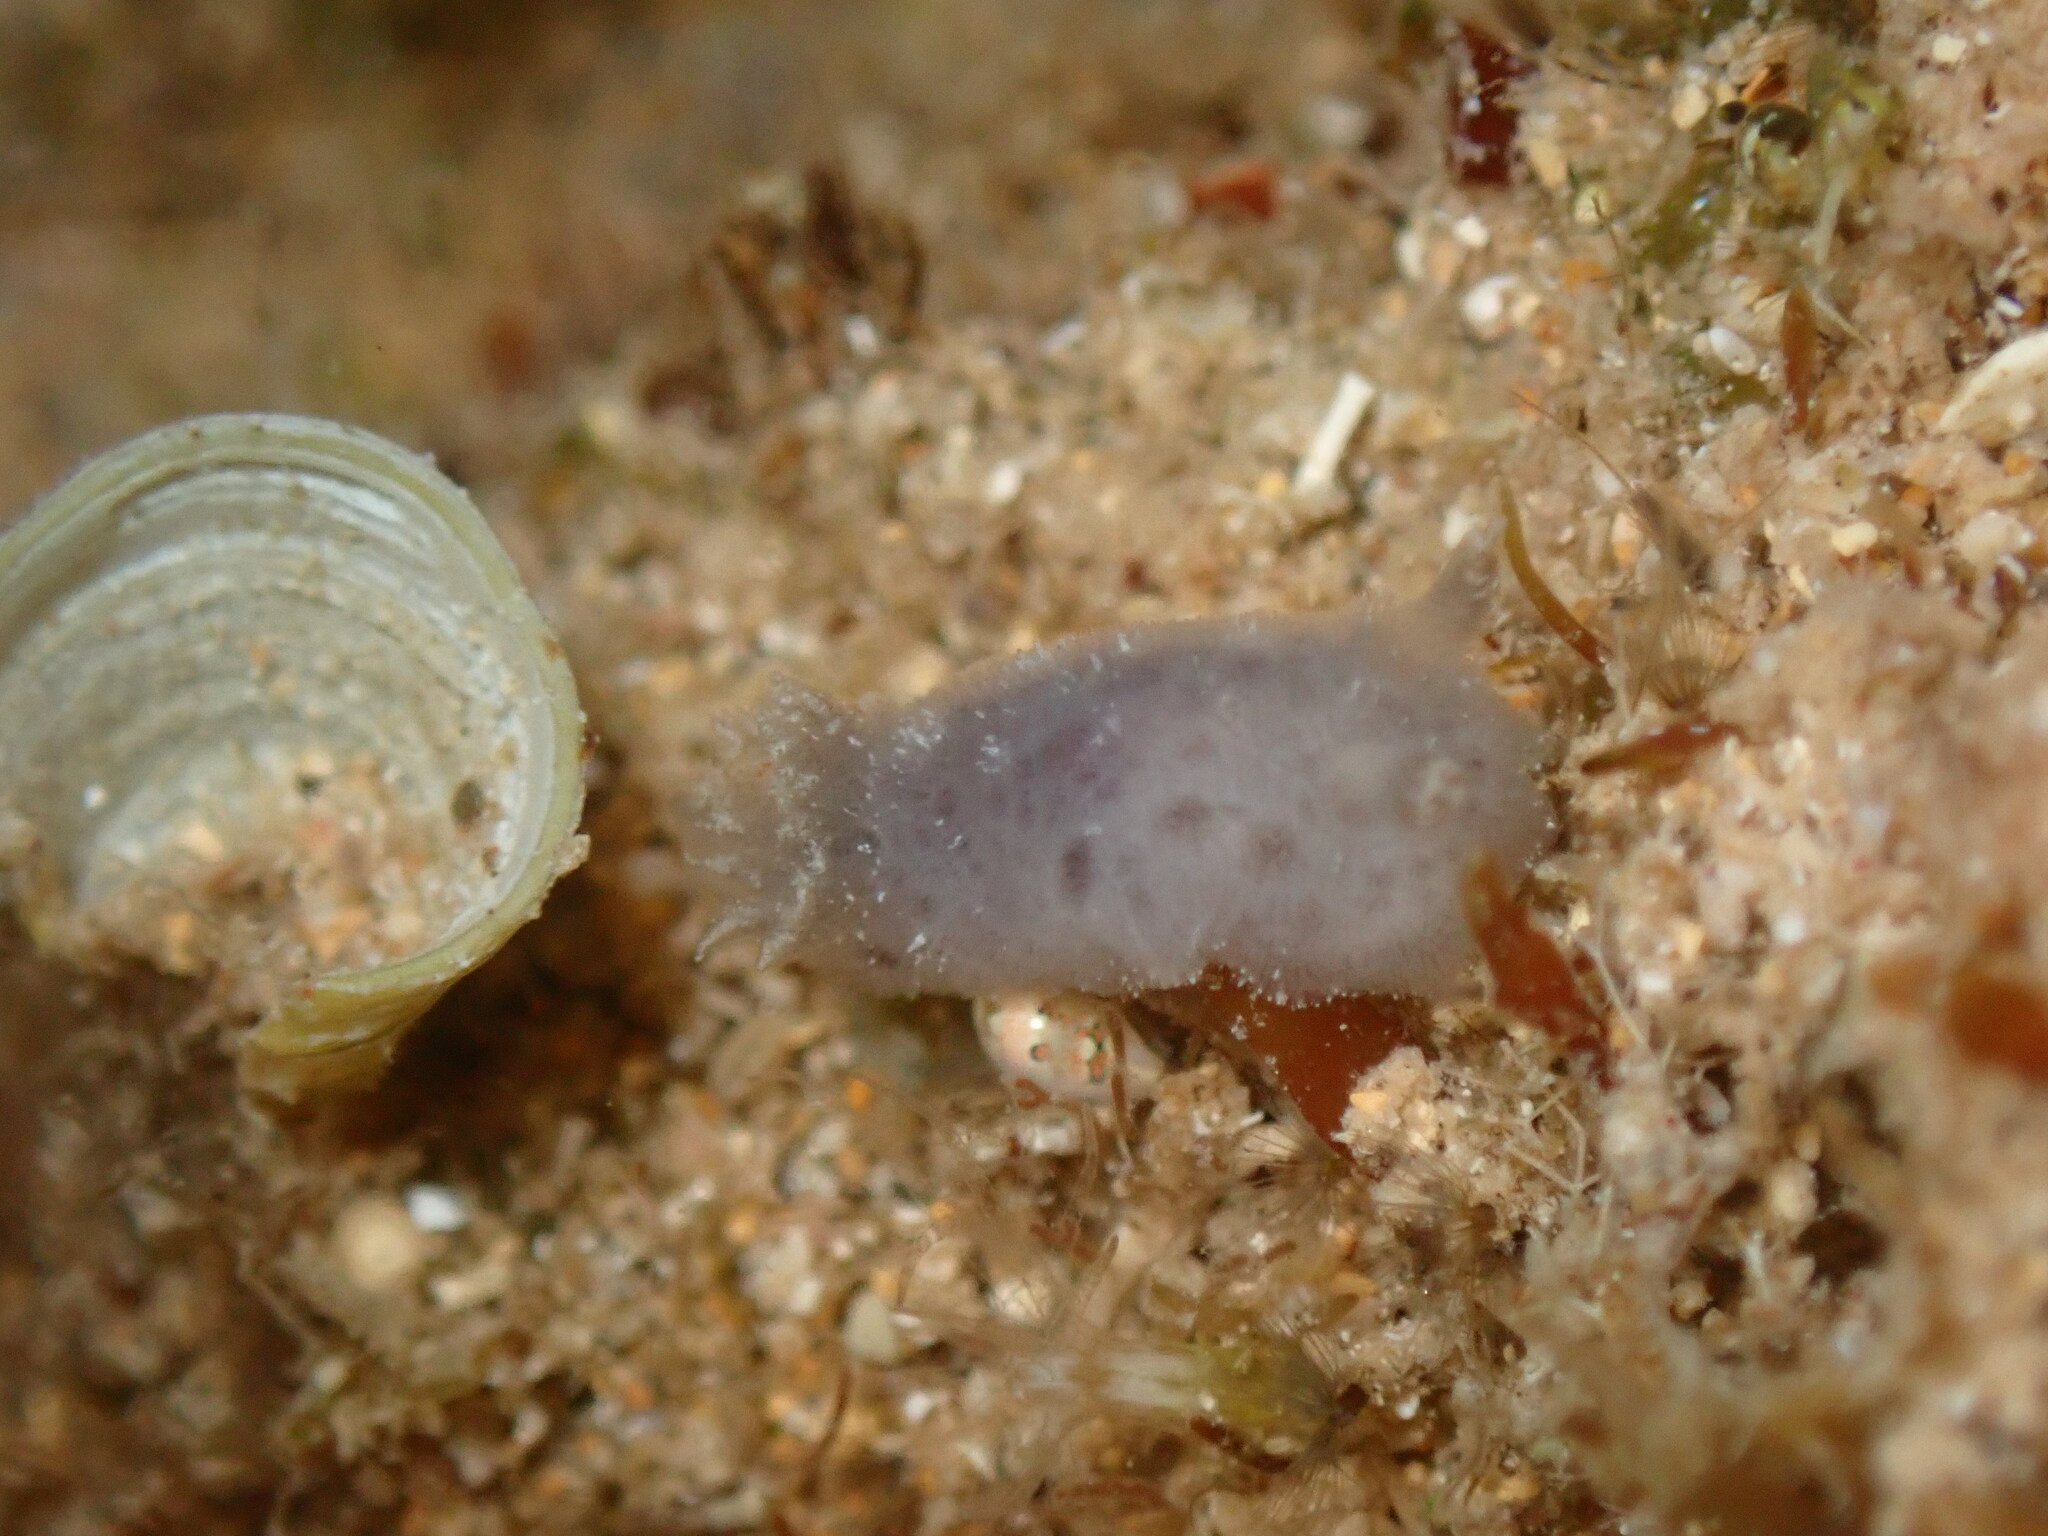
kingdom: Animalia
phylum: Mollusca
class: Gastropoda
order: Nudibranchia
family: Discodorididae
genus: Jorunna
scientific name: Jorunna alisonae
